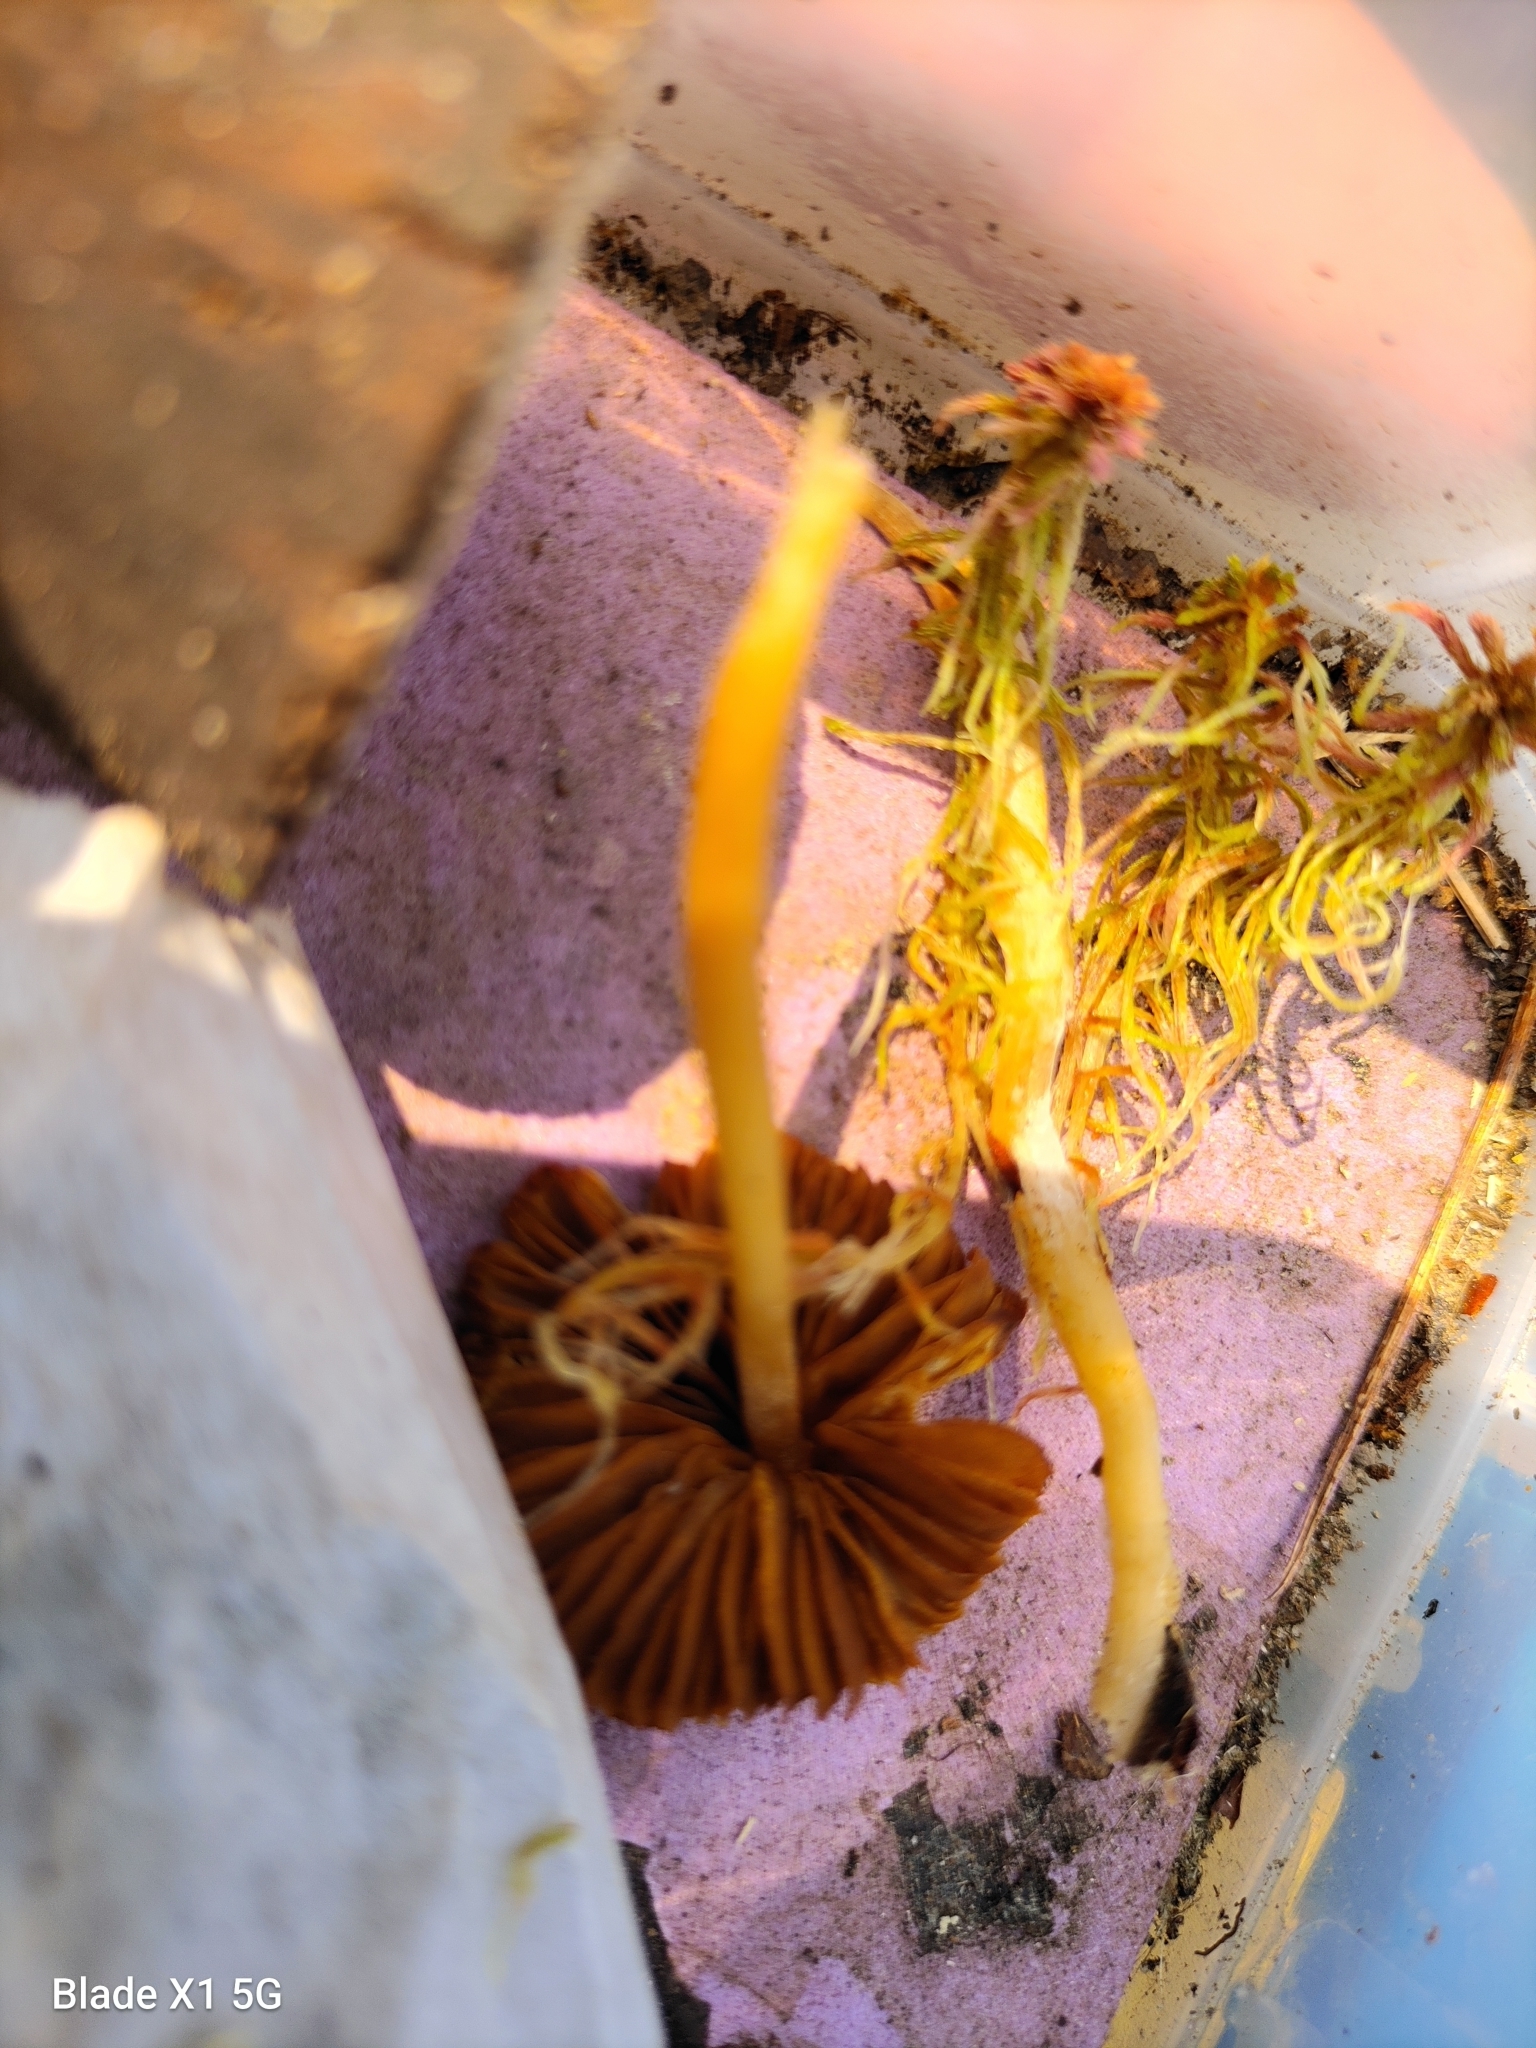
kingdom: Fungi
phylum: Basidiomycota
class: Agaricomycetes
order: Agaricales
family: Hymenogastraceae
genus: Galerina
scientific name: Galerina tibiicystis
